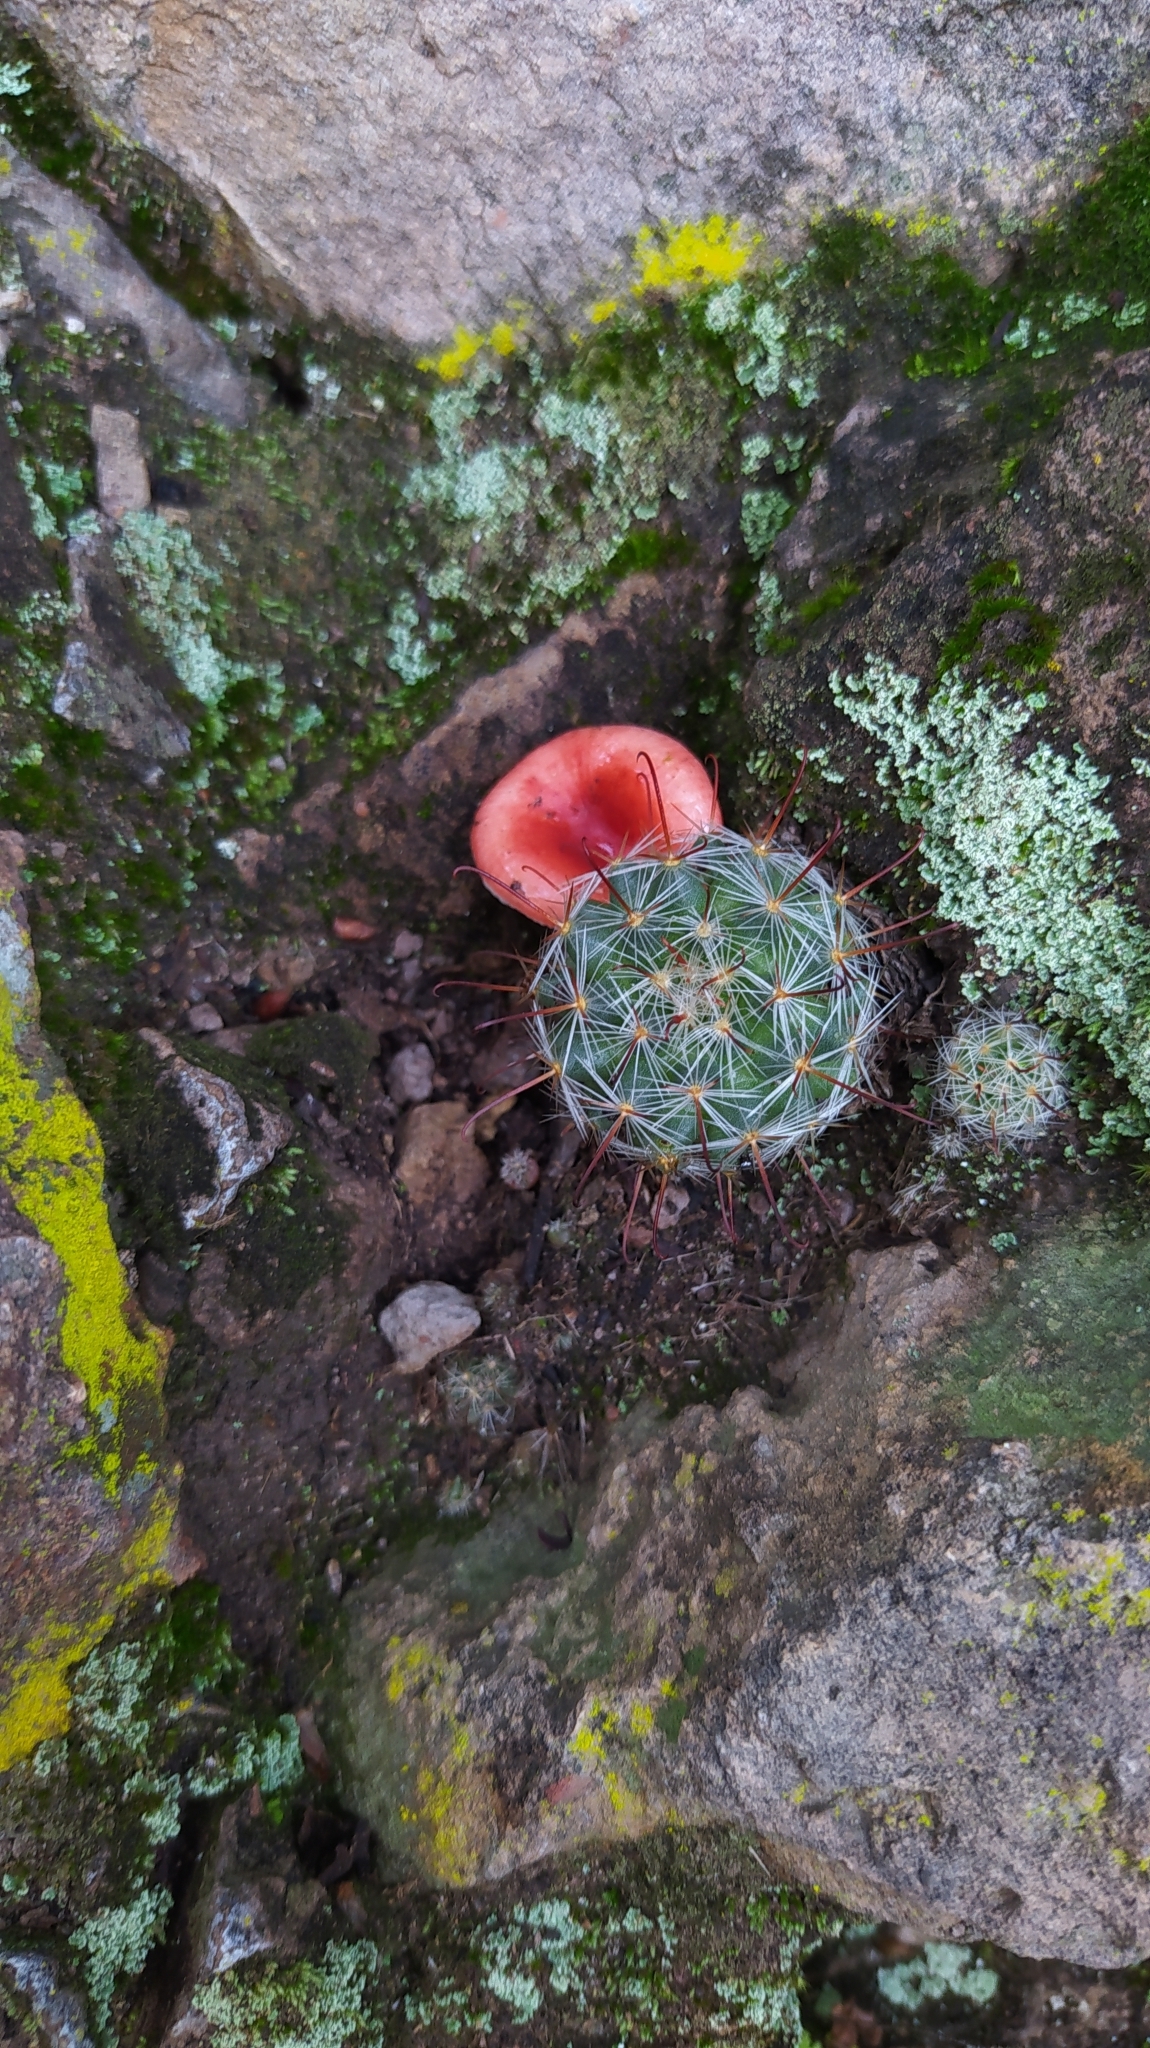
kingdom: Plantae
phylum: Tracheophyta
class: Magnoliopsida
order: Caryophyllales
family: Cactaceae
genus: Mammillaria
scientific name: Mammillaria jaliscana
